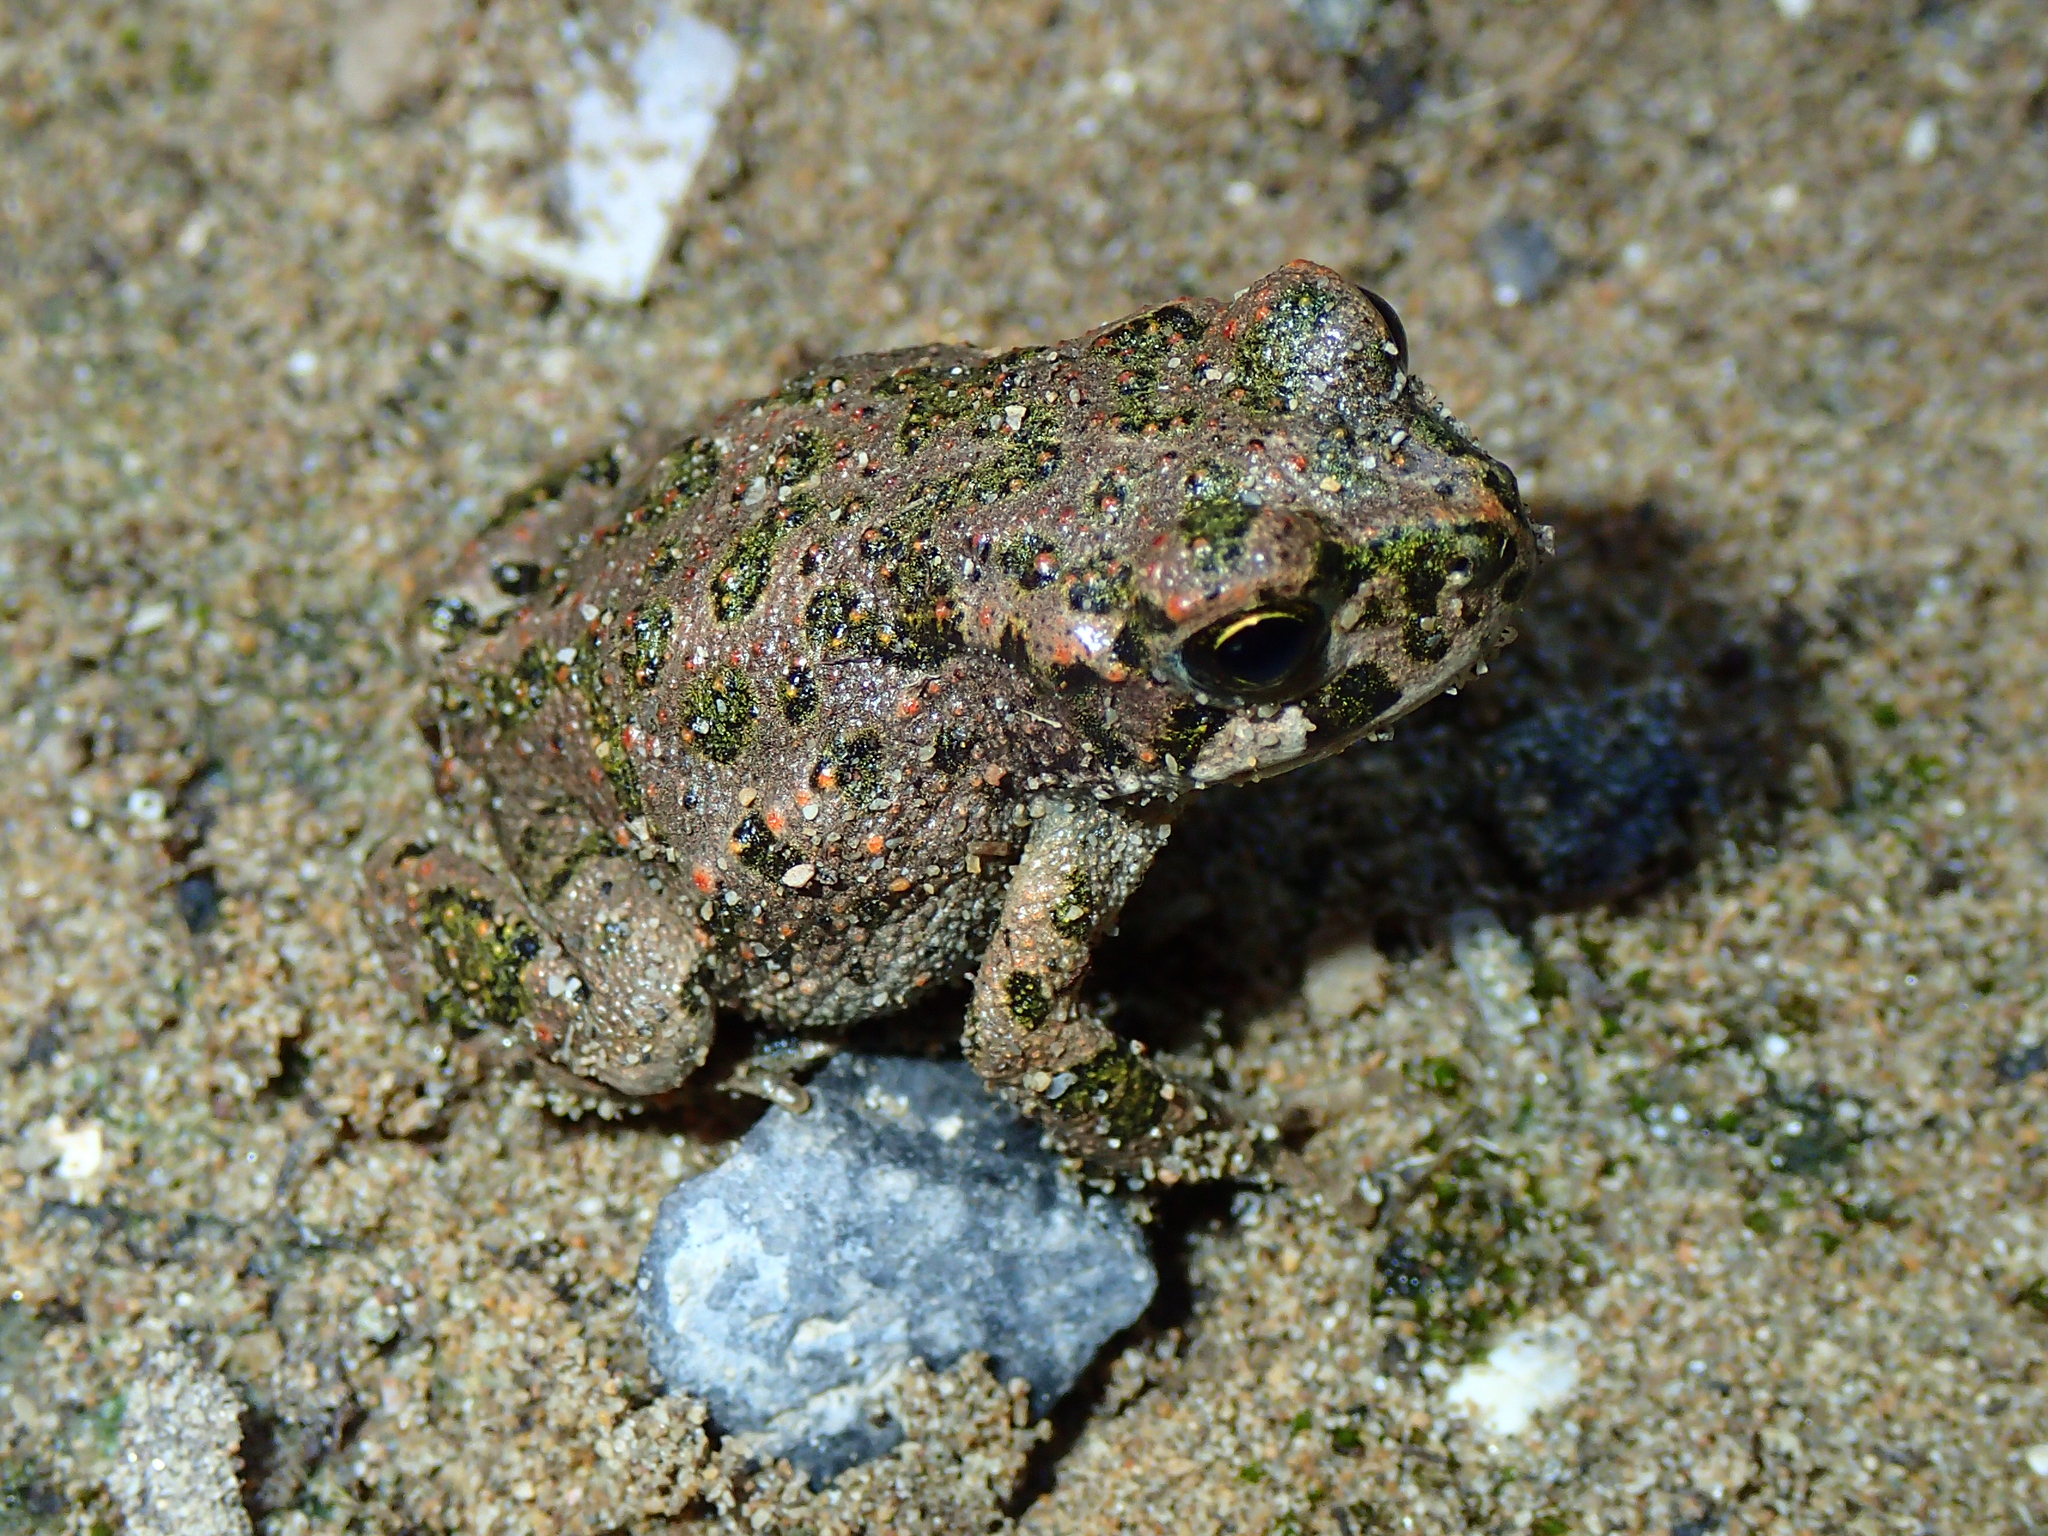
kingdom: Animalia
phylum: Chordata
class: Amphibia
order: Anura
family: Bufonidae
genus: Bufotes
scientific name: Bufotes viridis
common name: European green toad
